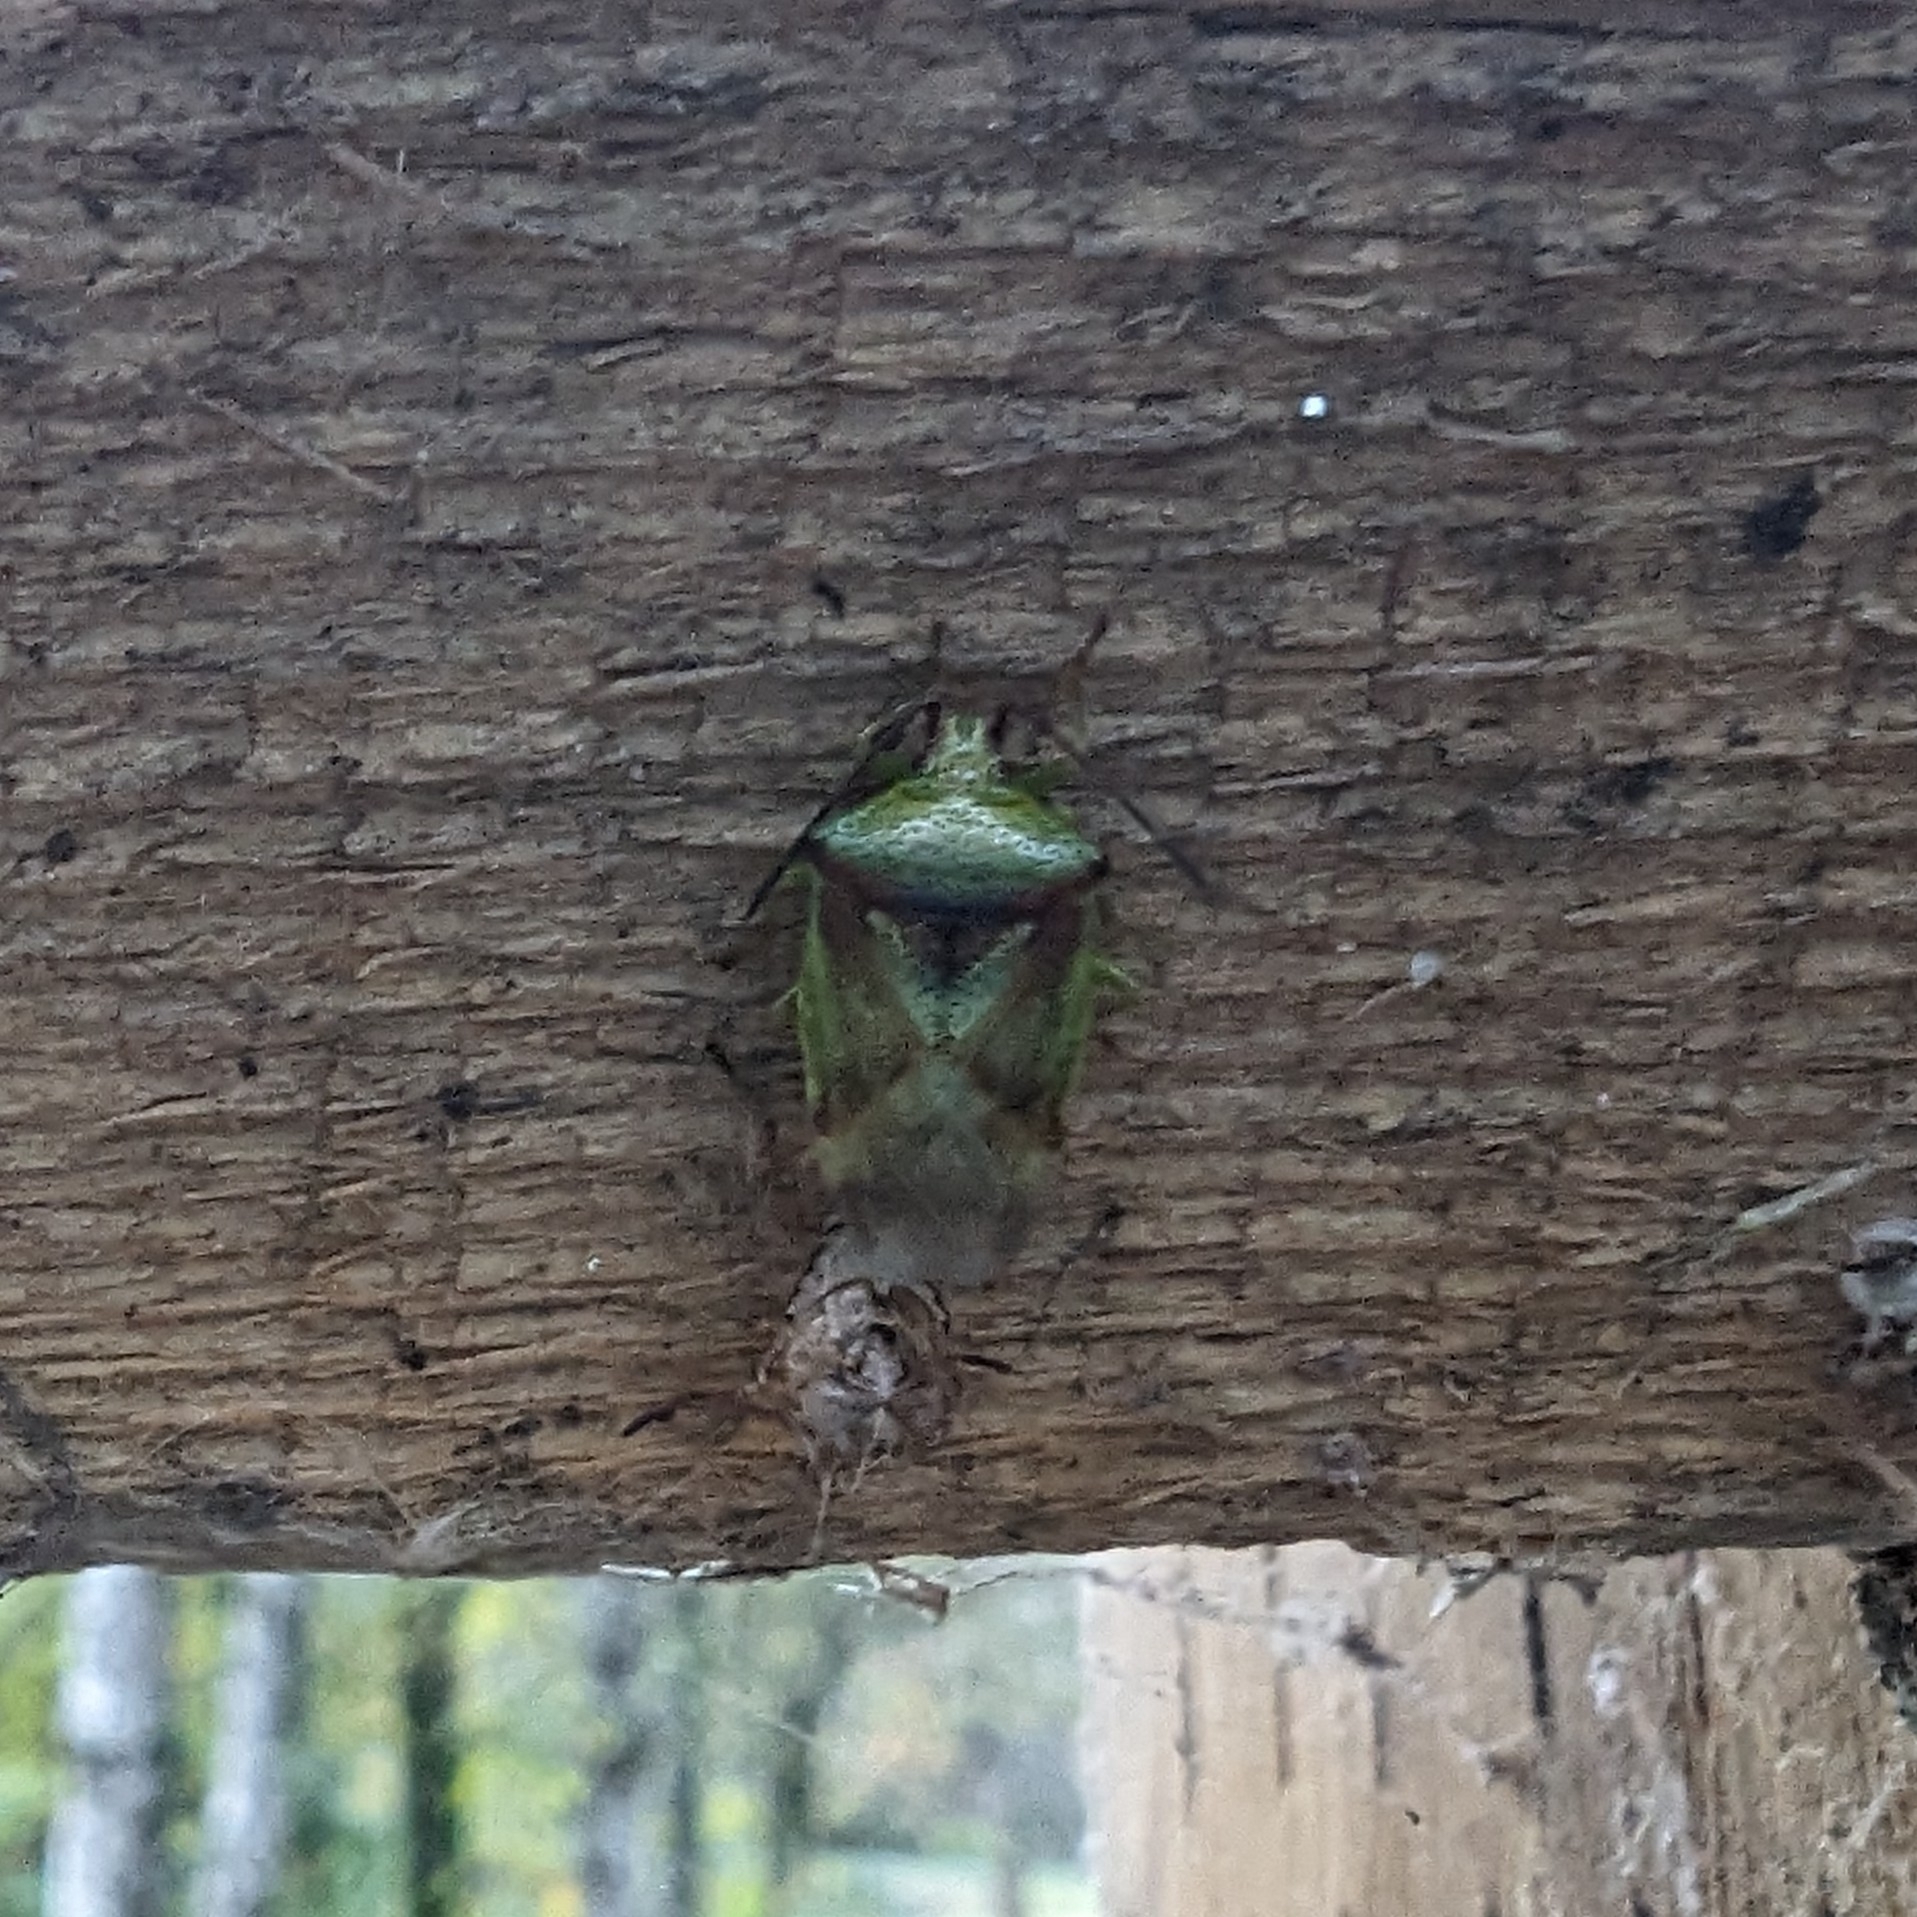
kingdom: Animalia
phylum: Arthropoda
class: Insecta
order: Hemiptera
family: Acanthosomatidae
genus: Elasmostethus
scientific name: Elasmostethus cruciatus
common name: Red-cross shield bug
